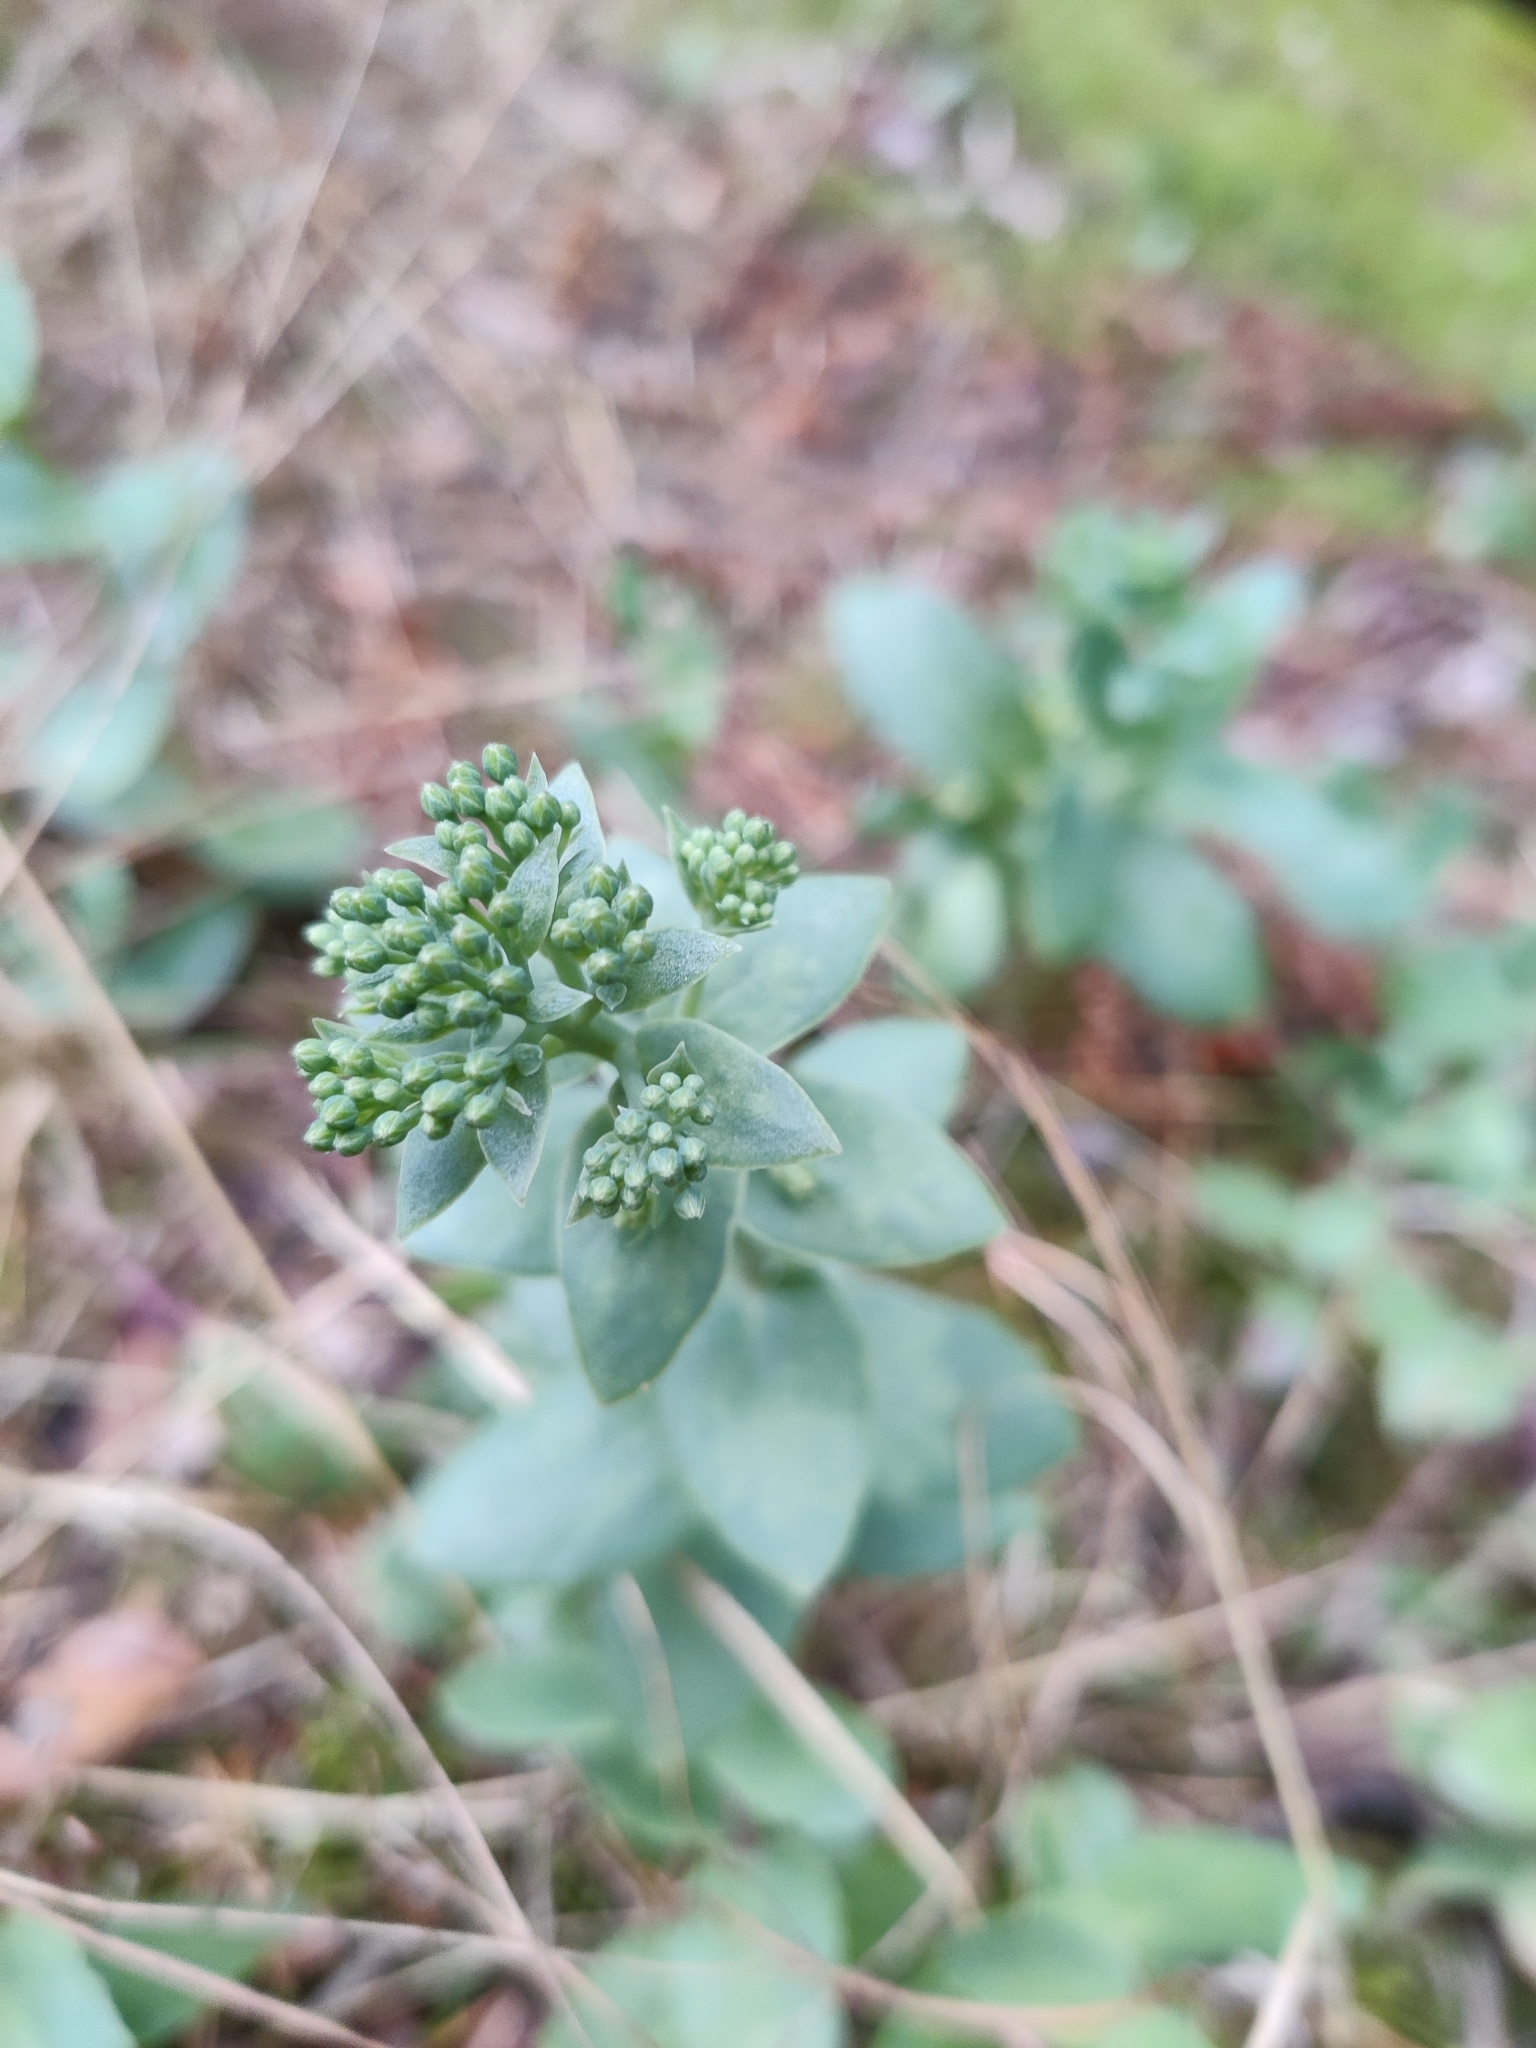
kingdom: Plantae
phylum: Tracheophyta
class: Magnoliopsida
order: Saxifragales
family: Crassulaceae
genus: Hylotelephium
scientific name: Hylotelephium maximum
